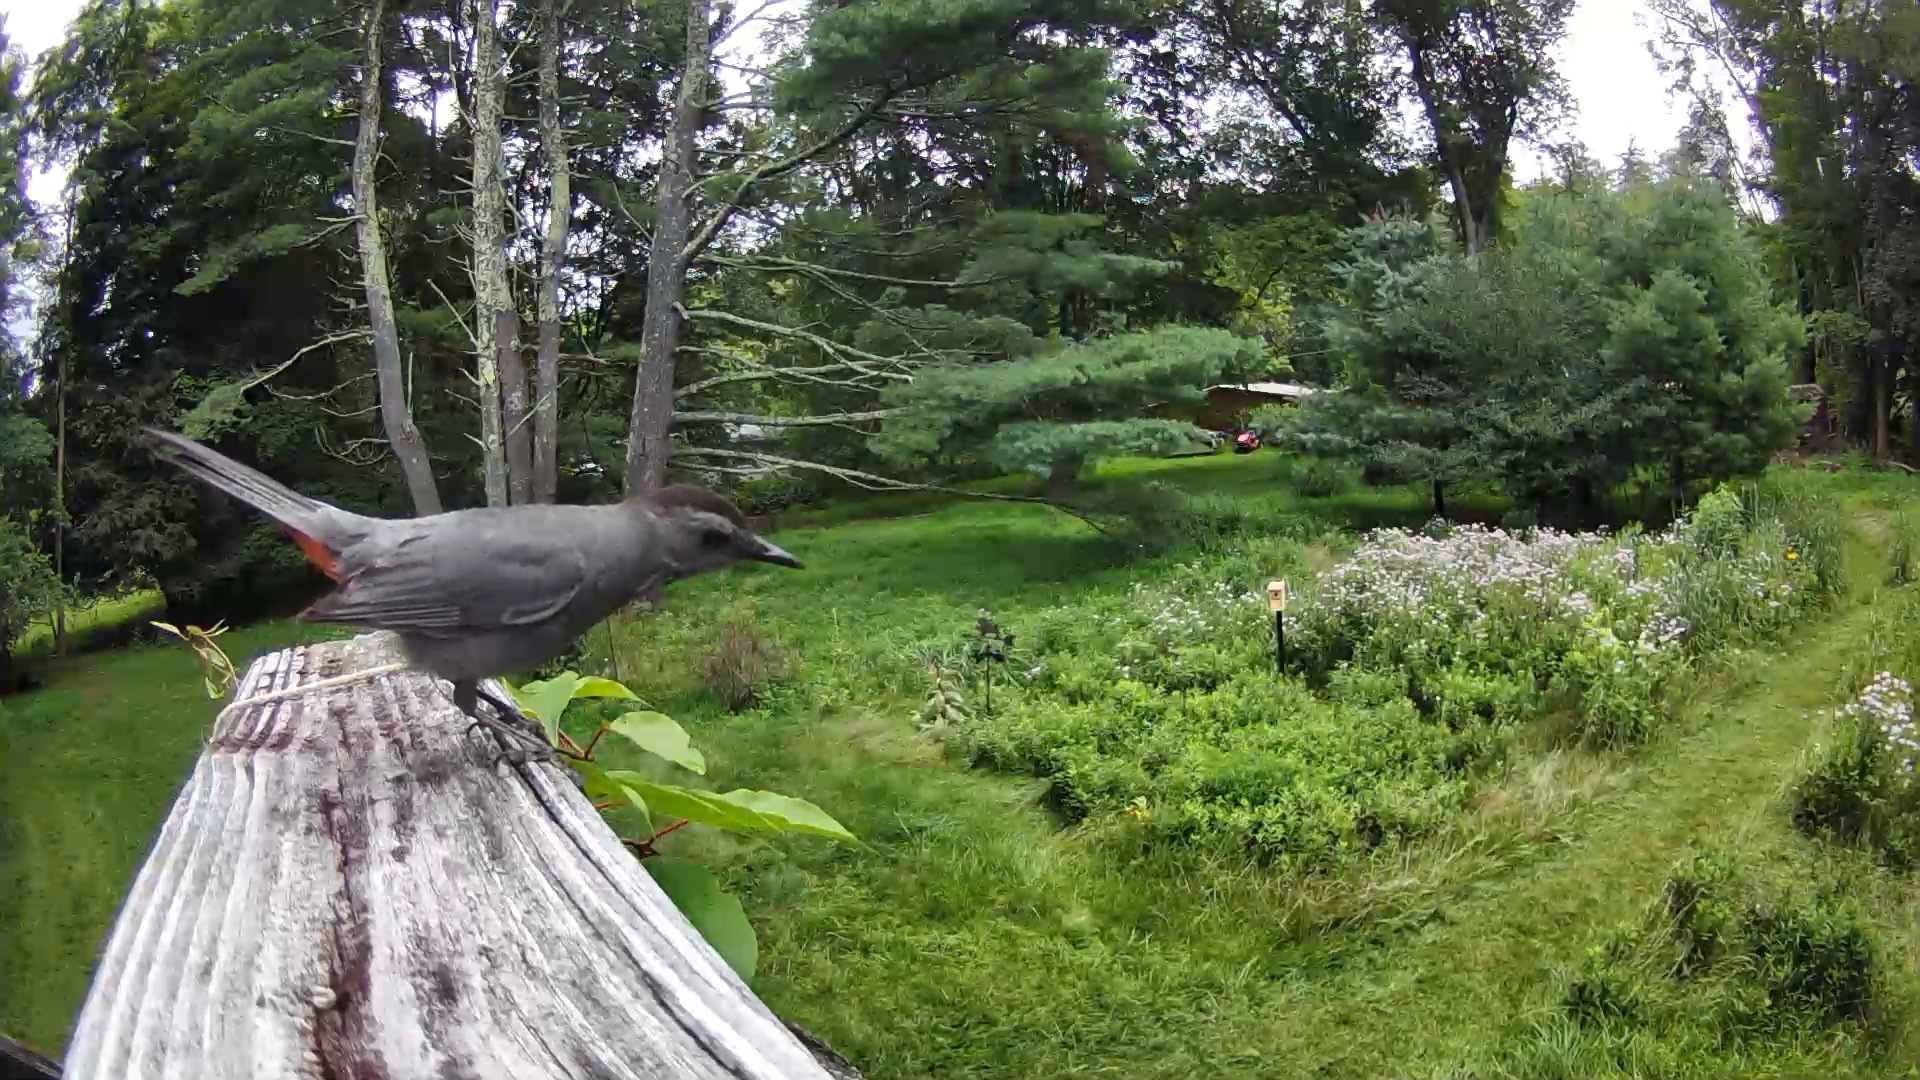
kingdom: Animalia
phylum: Chordata
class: Aves
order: Passeriformes
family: Mimidae
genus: Dumetella
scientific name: Dumetella carolinensis
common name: Gray catbird
